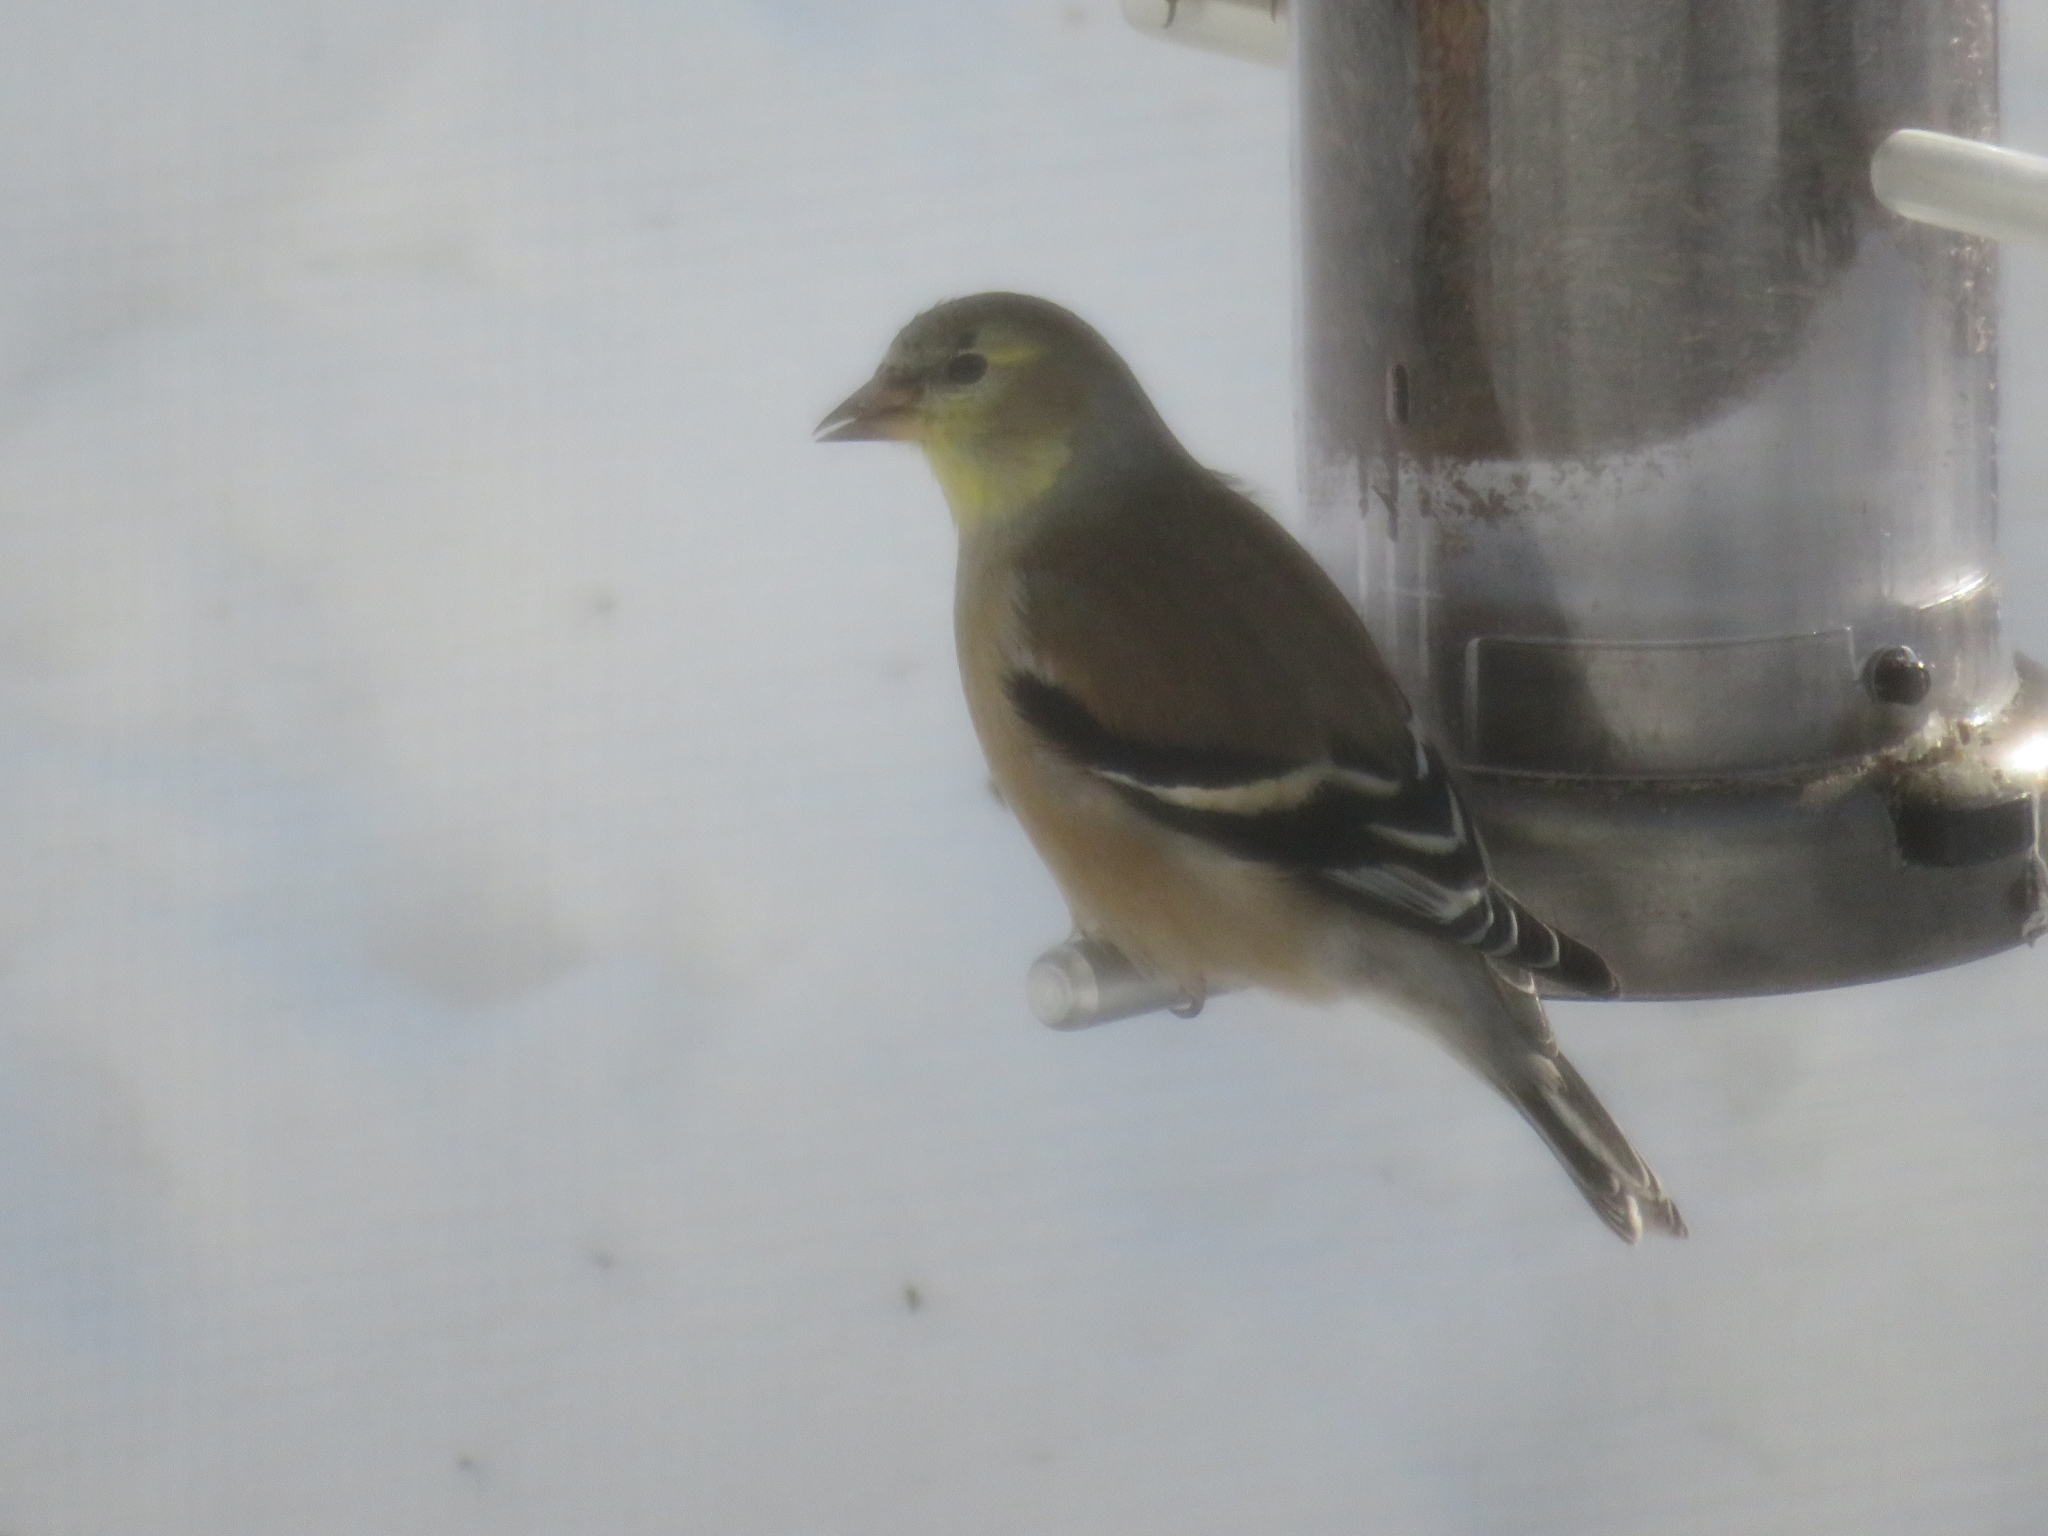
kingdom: Animalia
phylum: Chordata
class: Aves
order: Passeriformes
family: Fringillidae
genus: Spinus
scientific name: Spinus tristis
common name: American goldfinch
